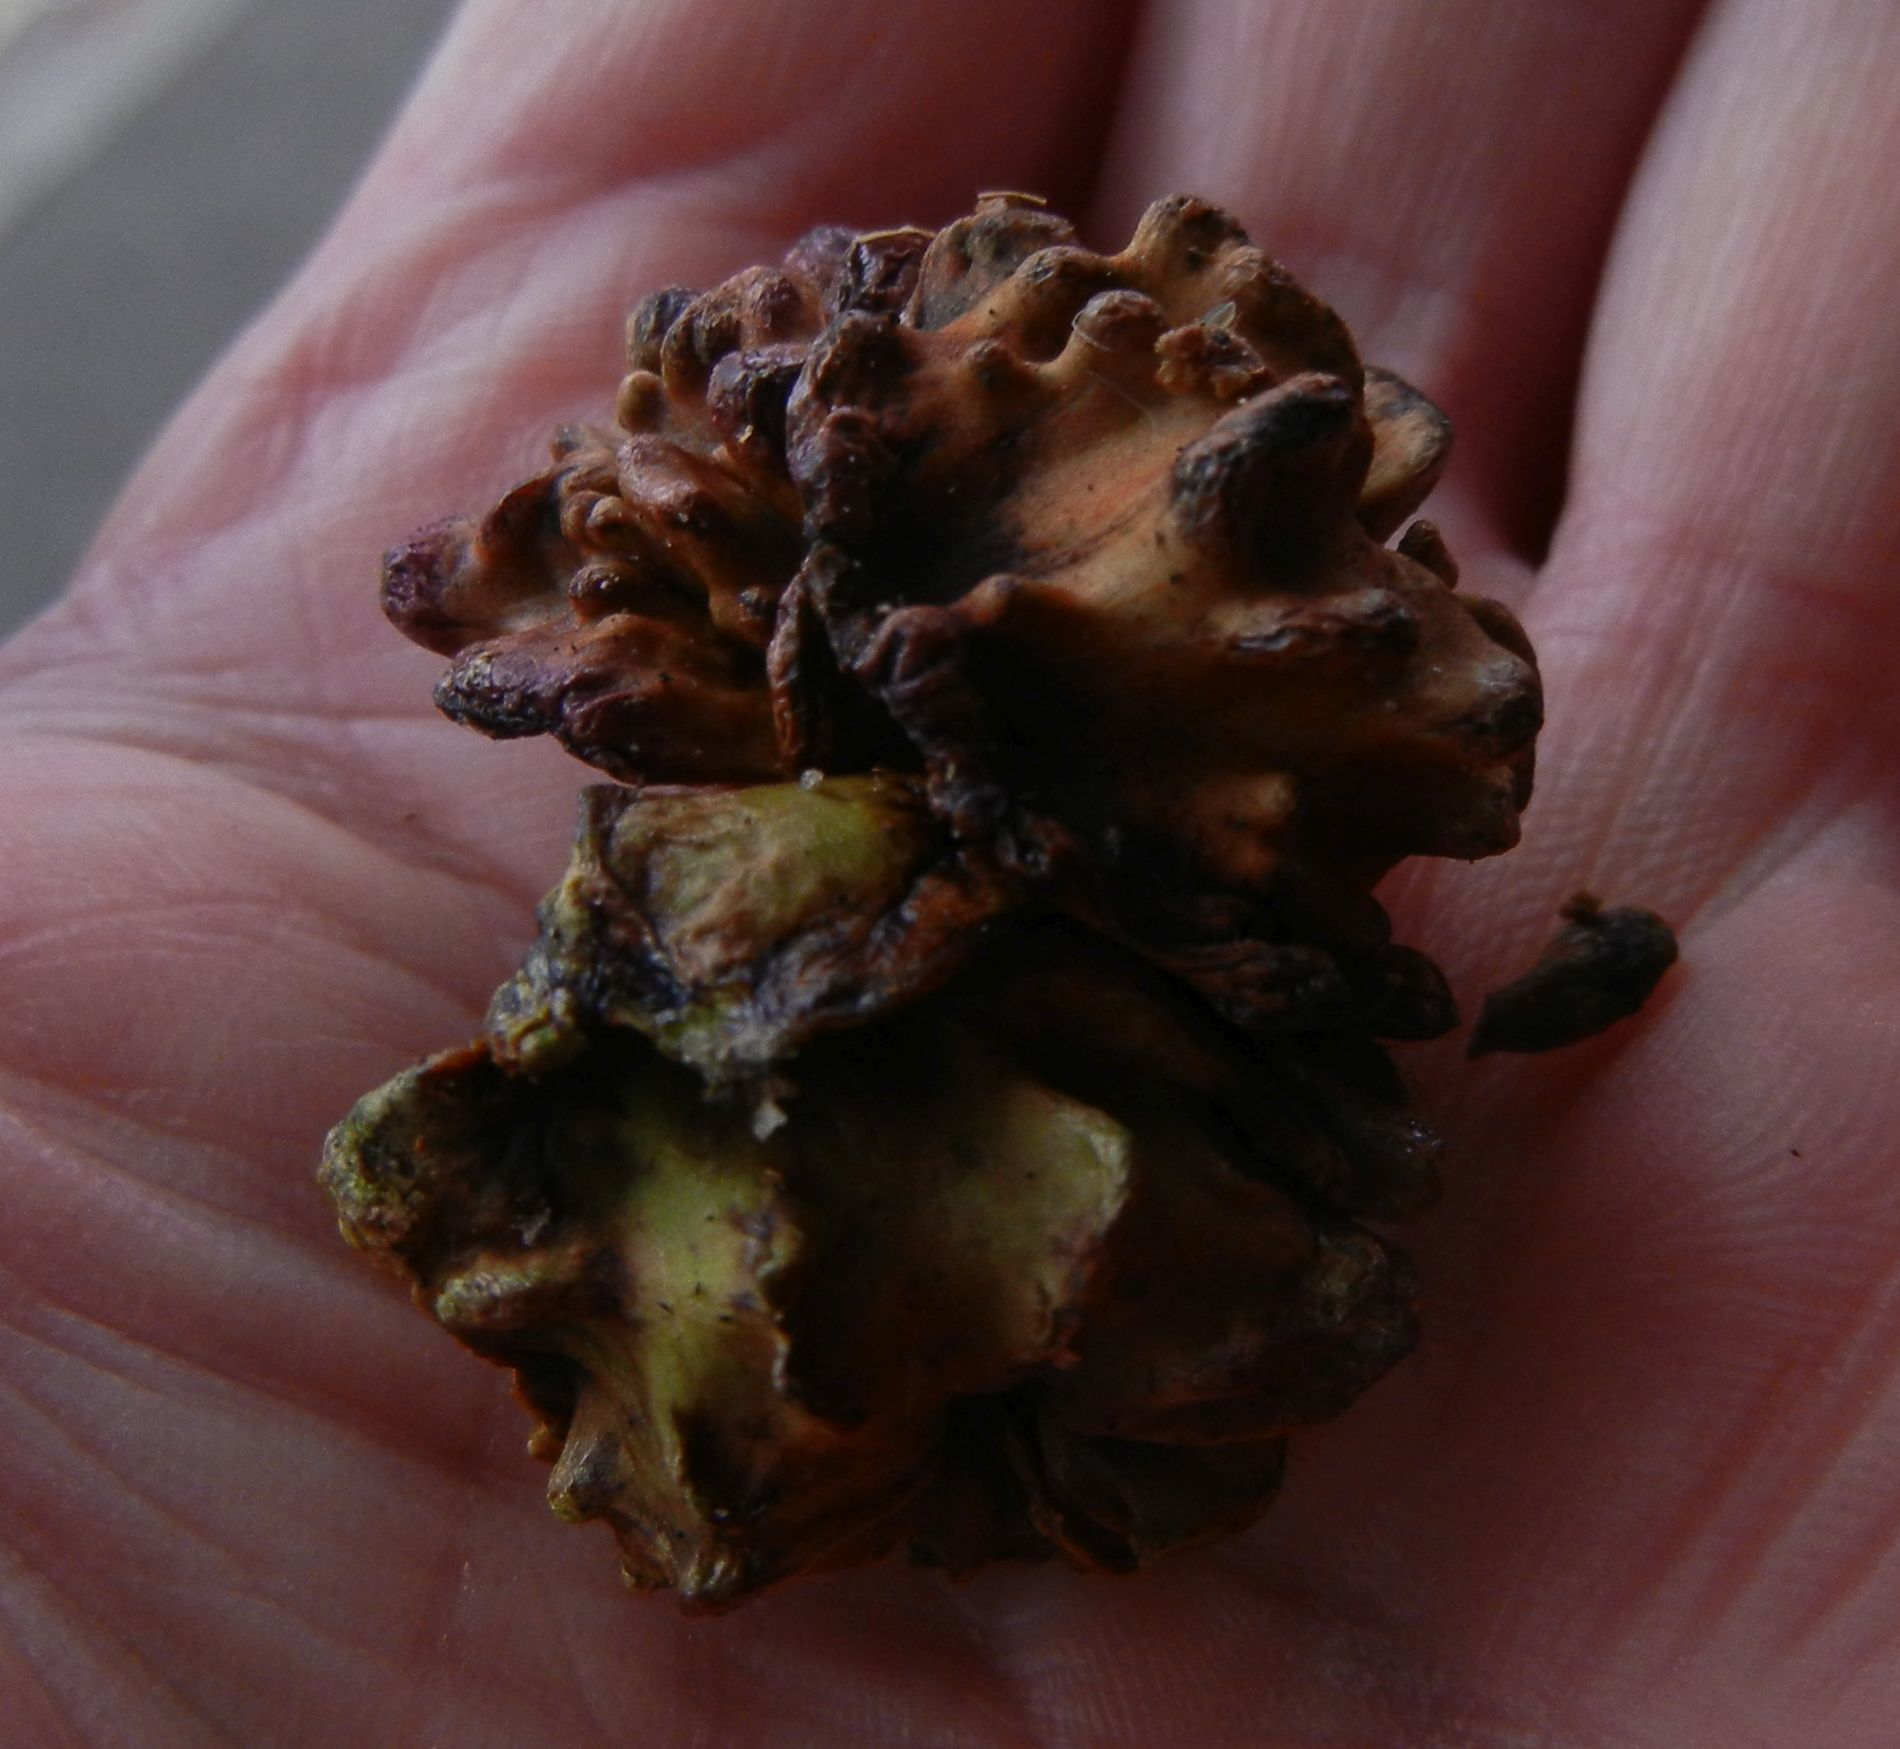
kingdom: Animalia
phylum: Arthropoda
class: Insecta
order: Hymenoptera
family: Cynipidae
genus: Andricus
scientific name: Andricus quercuscalicis
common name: Knopper gall
